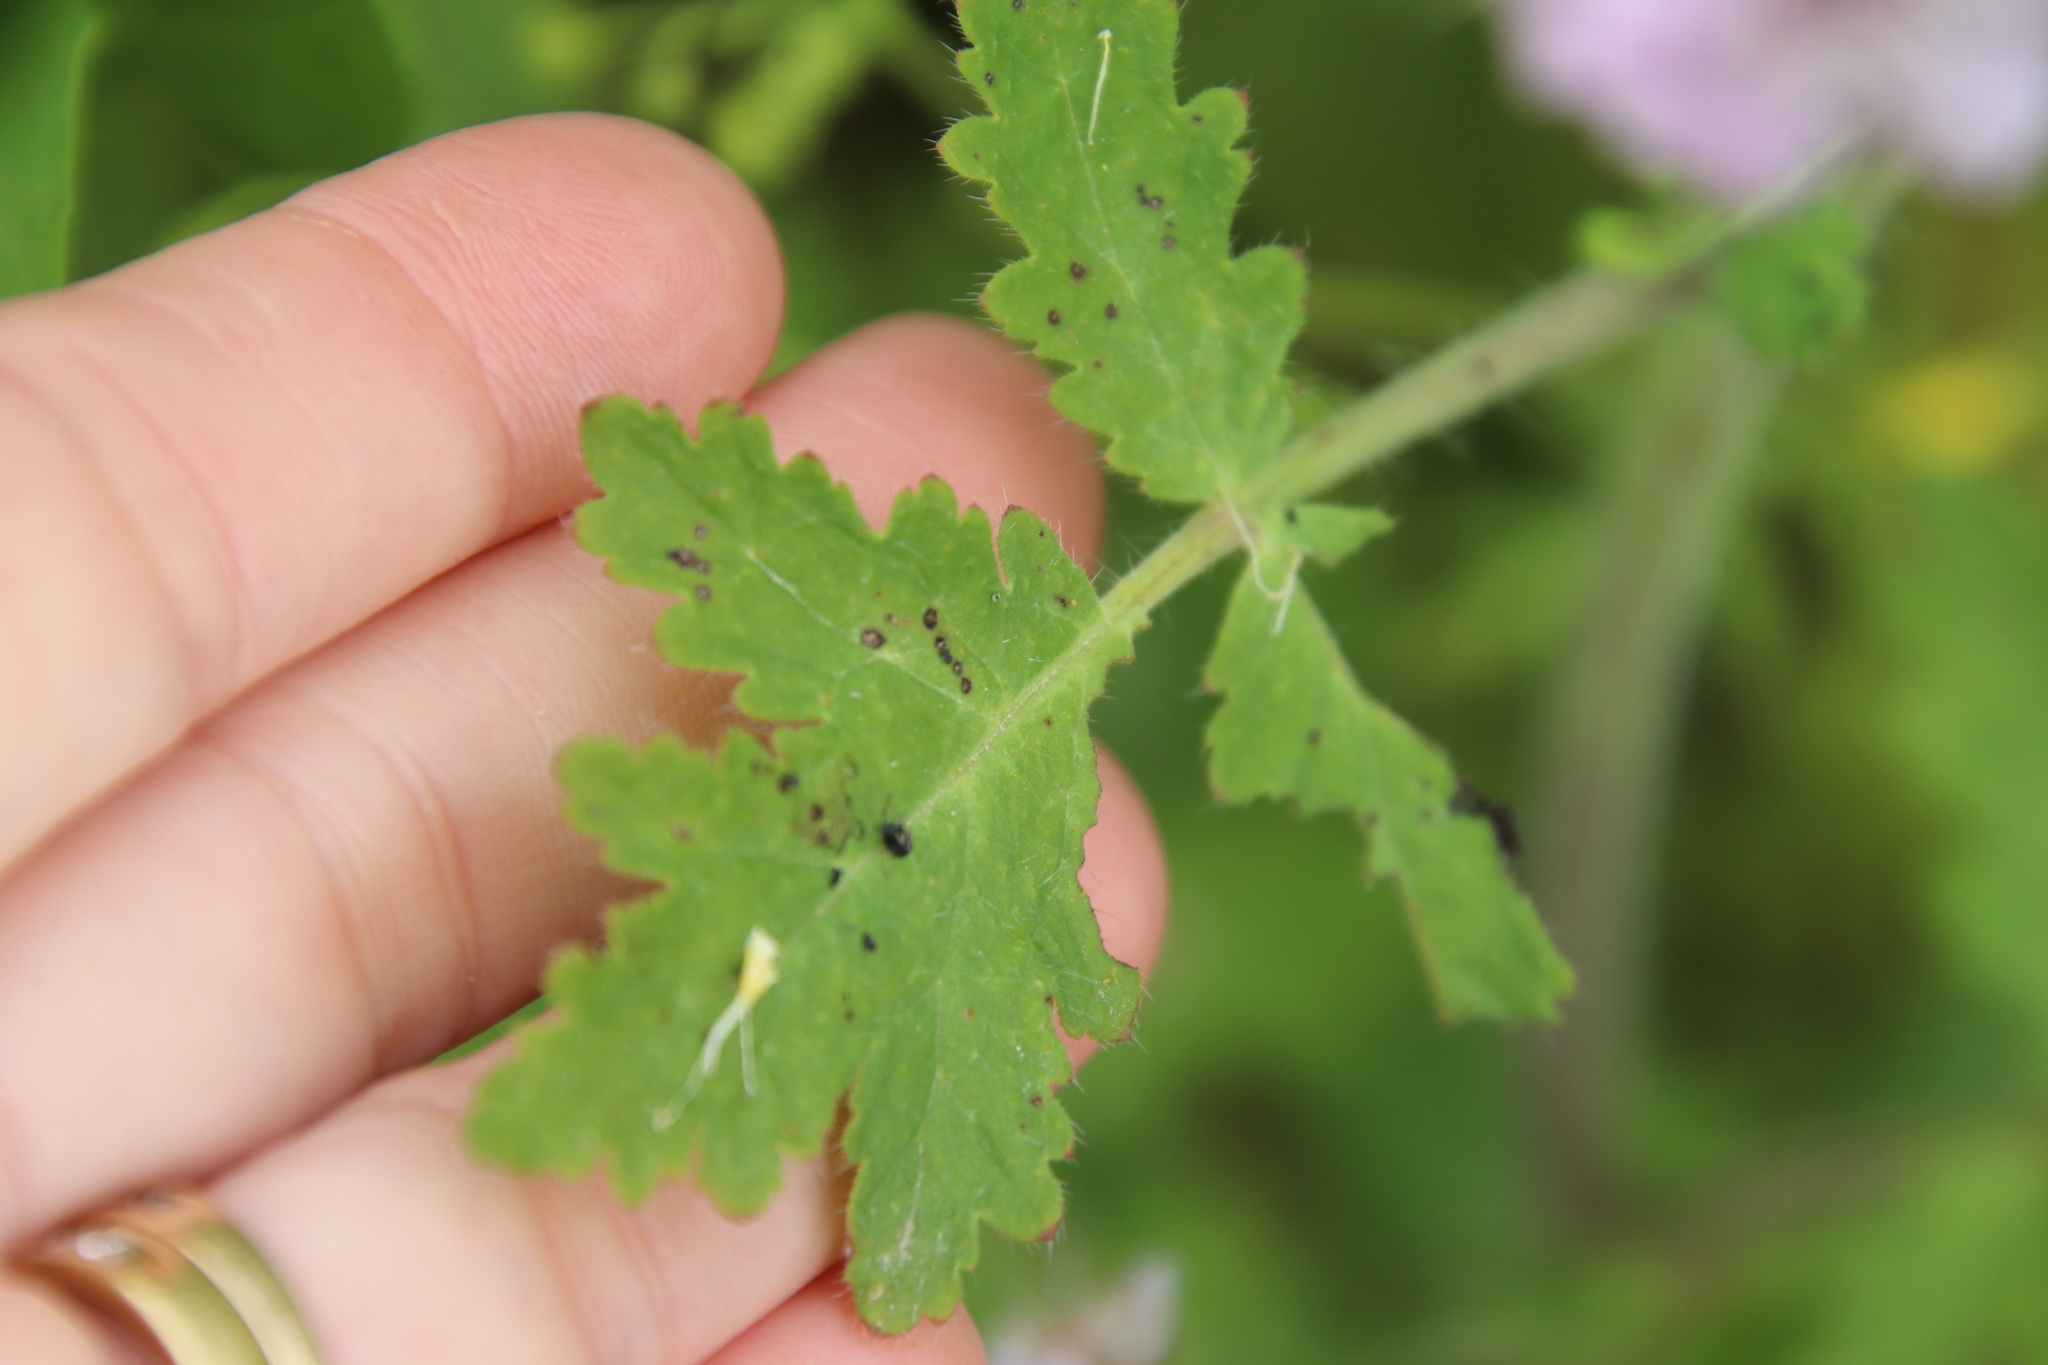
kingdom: Plantae
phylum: Tracheophyta
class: Magnoliopsida
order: Boraginales
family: Hydrophyllaceae
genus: Phacelia
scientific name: Phacelia cicutaria
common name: Caterpillar phacelia
